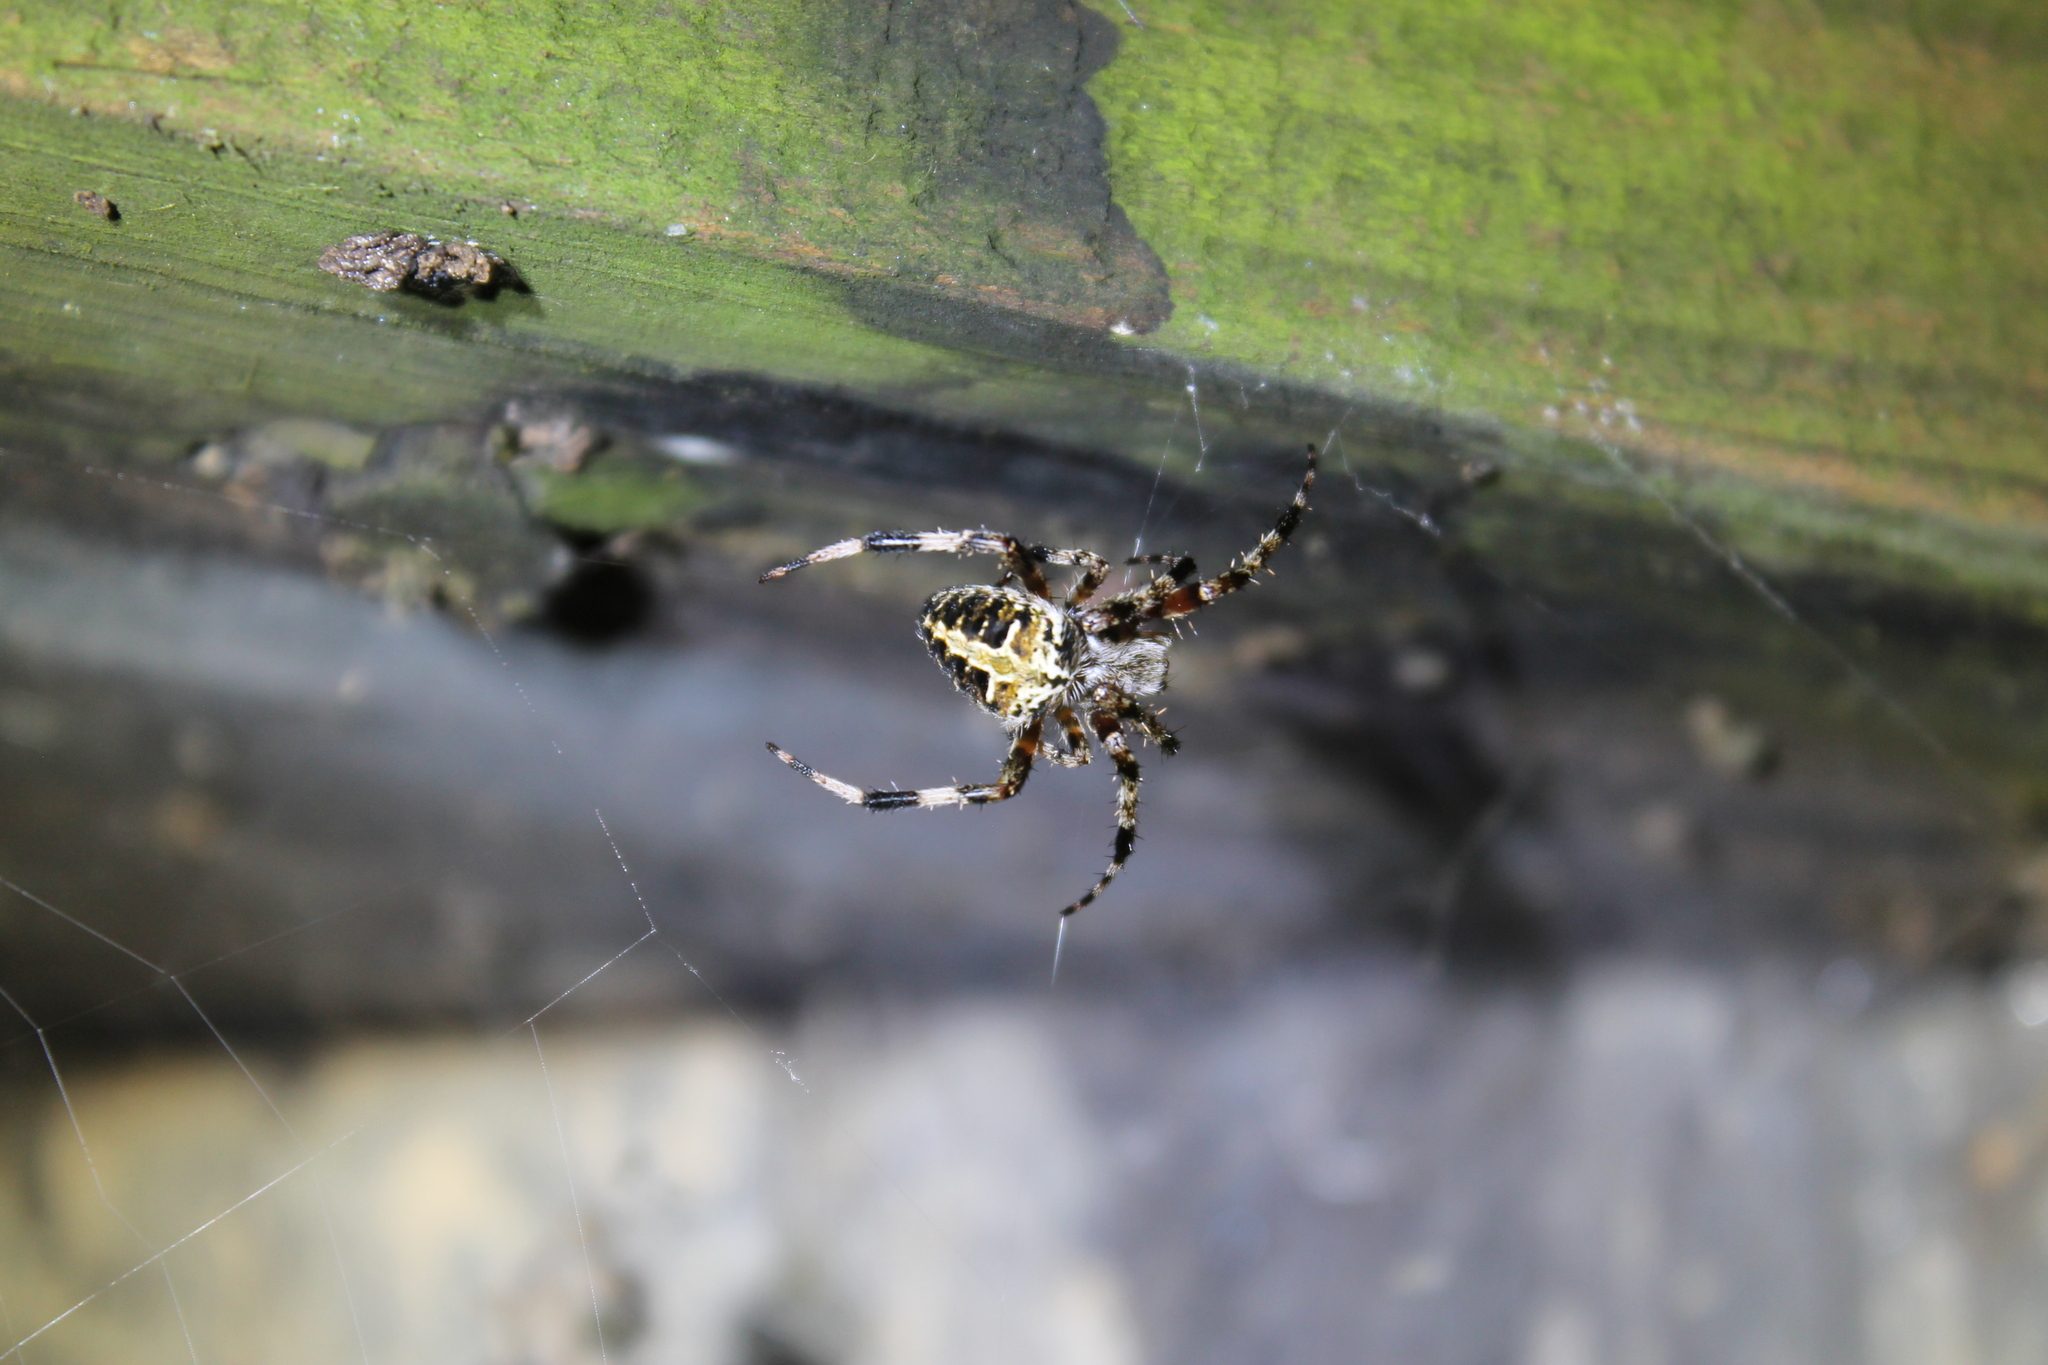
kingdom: Animalia
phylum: Arthropoda
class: Arachnida
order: Araneae
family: Araneidae
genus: Neoscona
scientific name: Neoscona domiciliorum
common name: Red-femured spotted orbweaver
